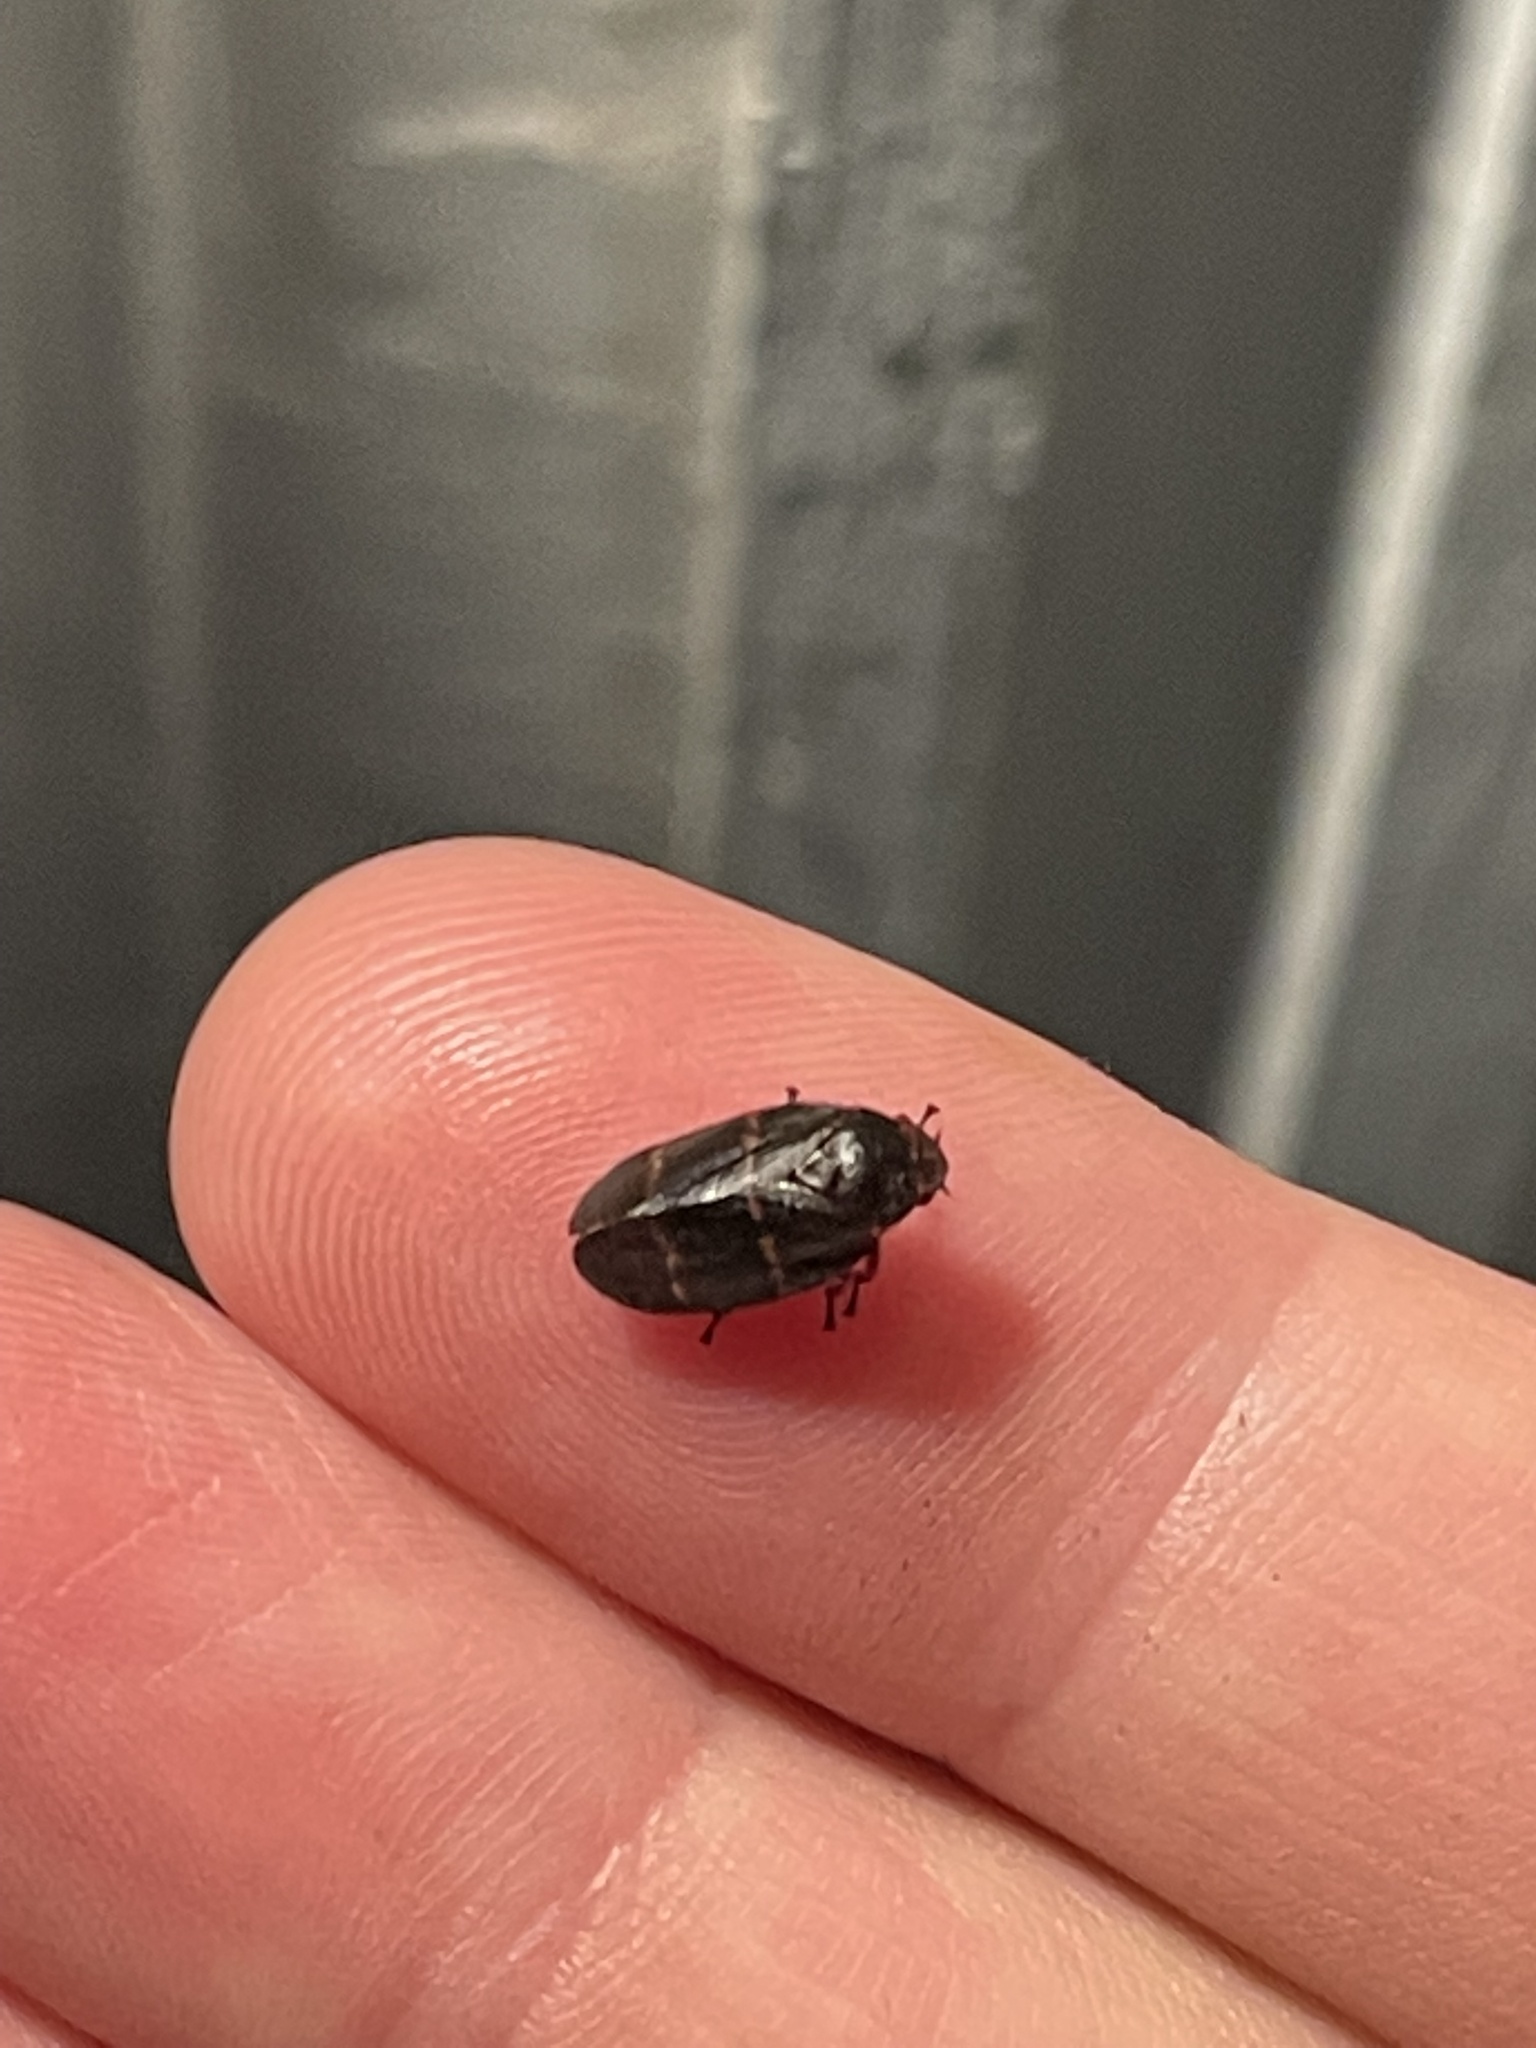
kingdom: Animalia
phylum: Arthropoda
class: Insecta
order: Hemiptera
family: Cercopidae
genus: Prosapia
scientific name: Prosapia bicincta
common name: Twolined spittlebug
